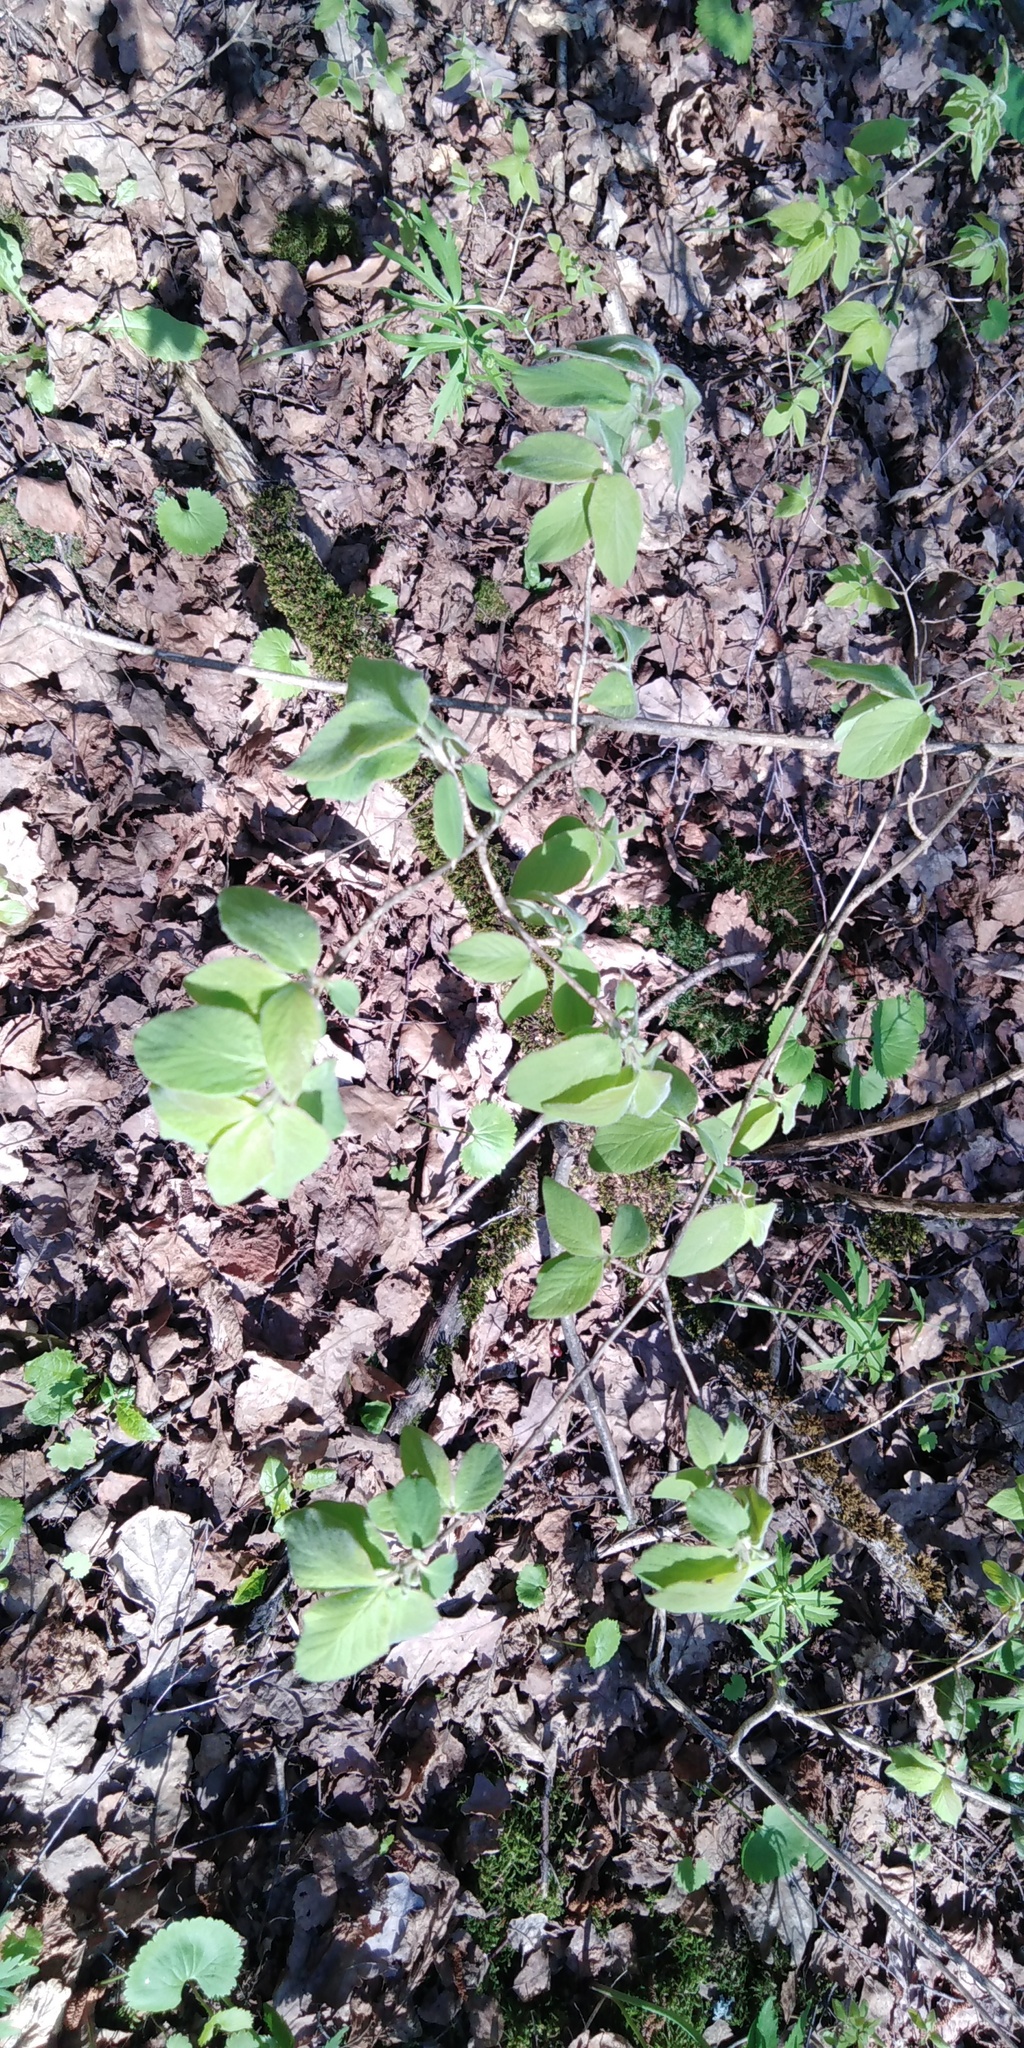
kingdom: Plantae
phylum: Tracheophyta
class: Magnoliopsida
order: Dipsacales
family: Caprifoliaceae
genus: Lonicera
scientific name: Lonicera xylosteum
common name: Fly honeysuckle
